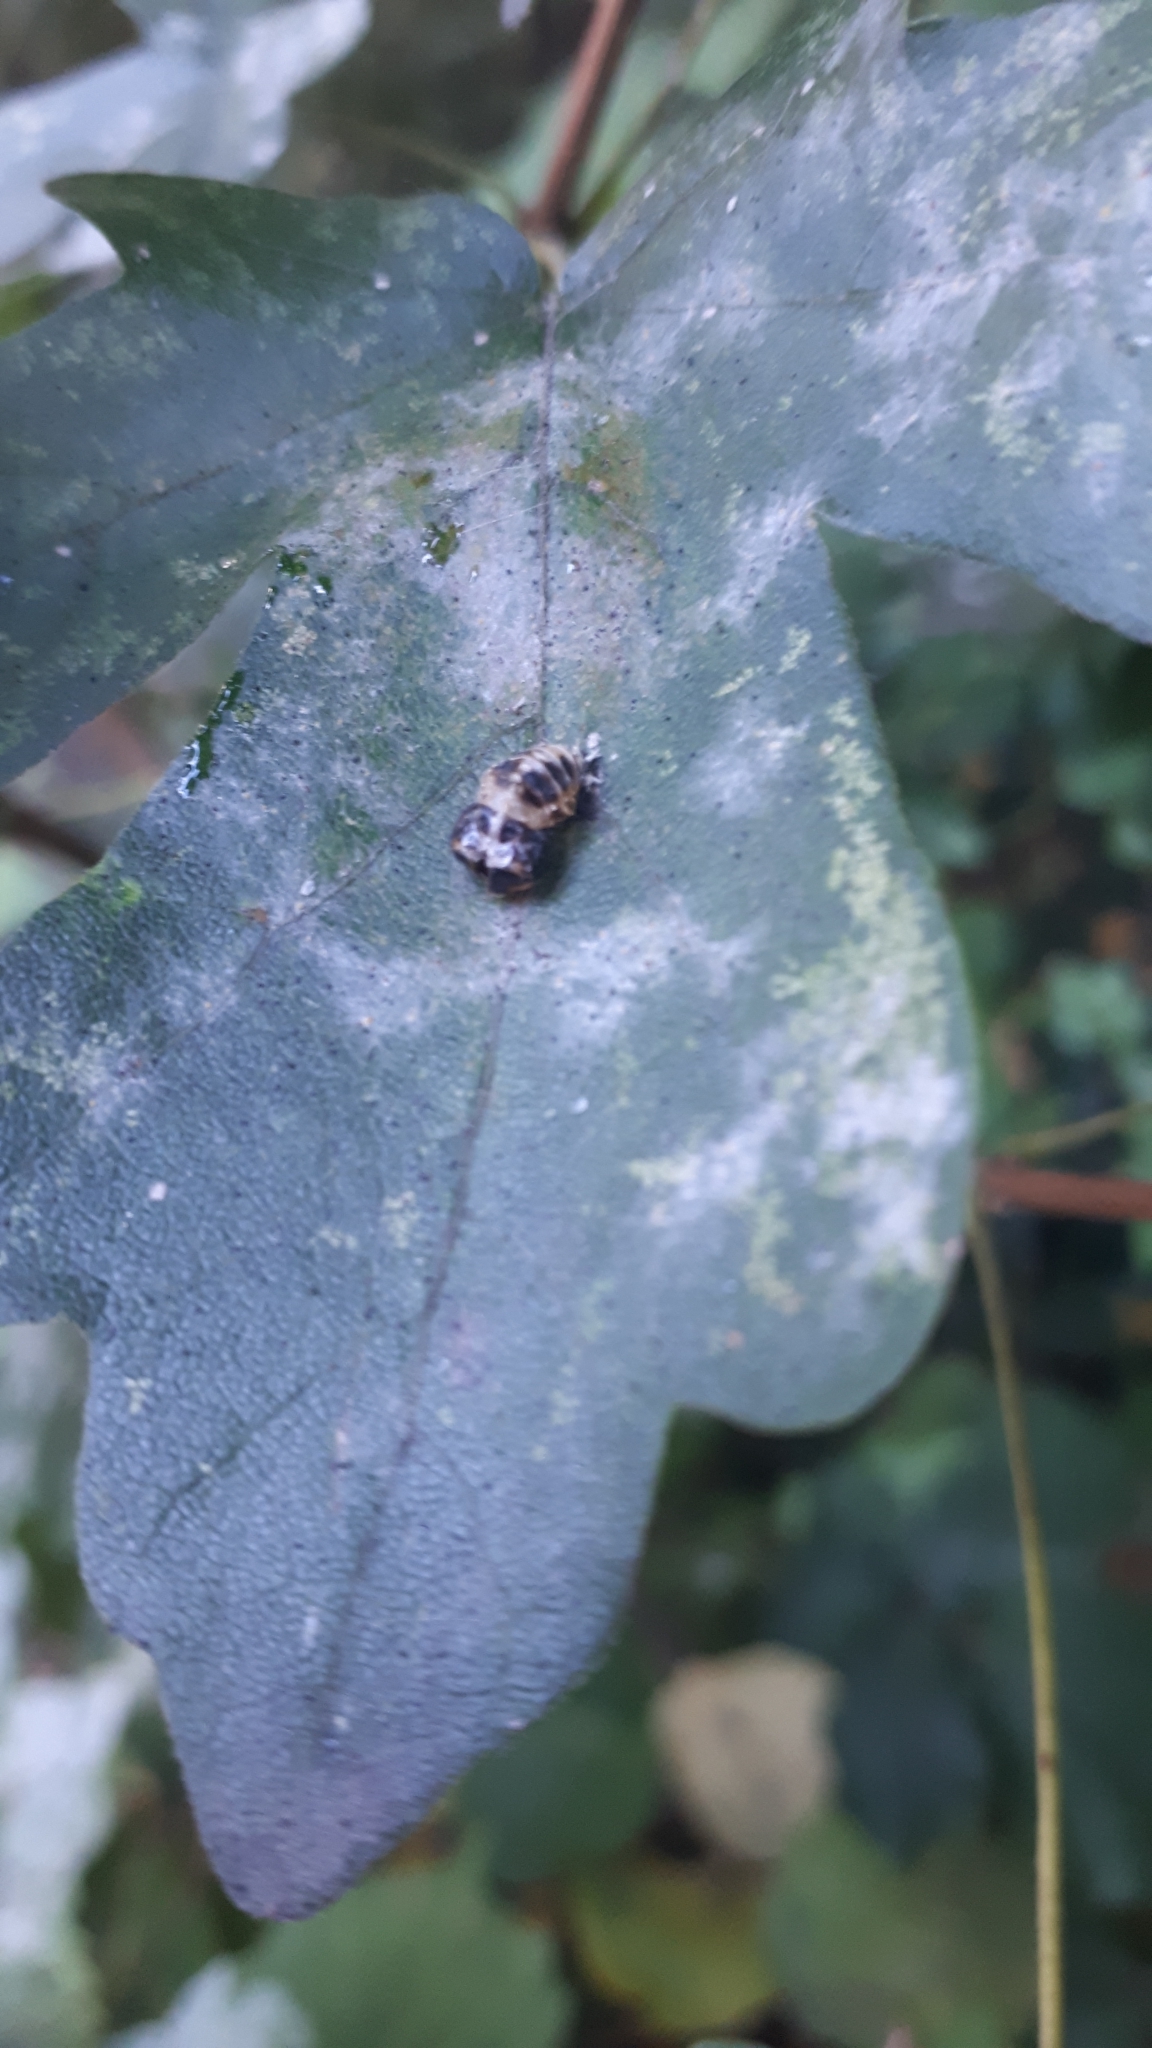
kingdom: Animalia
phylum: Arthropoda
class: Insecta
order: Coleoptera
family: Coccinellidae
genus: Harmonia
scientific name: Harmonia axyridis
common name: Harlequin ladybird
